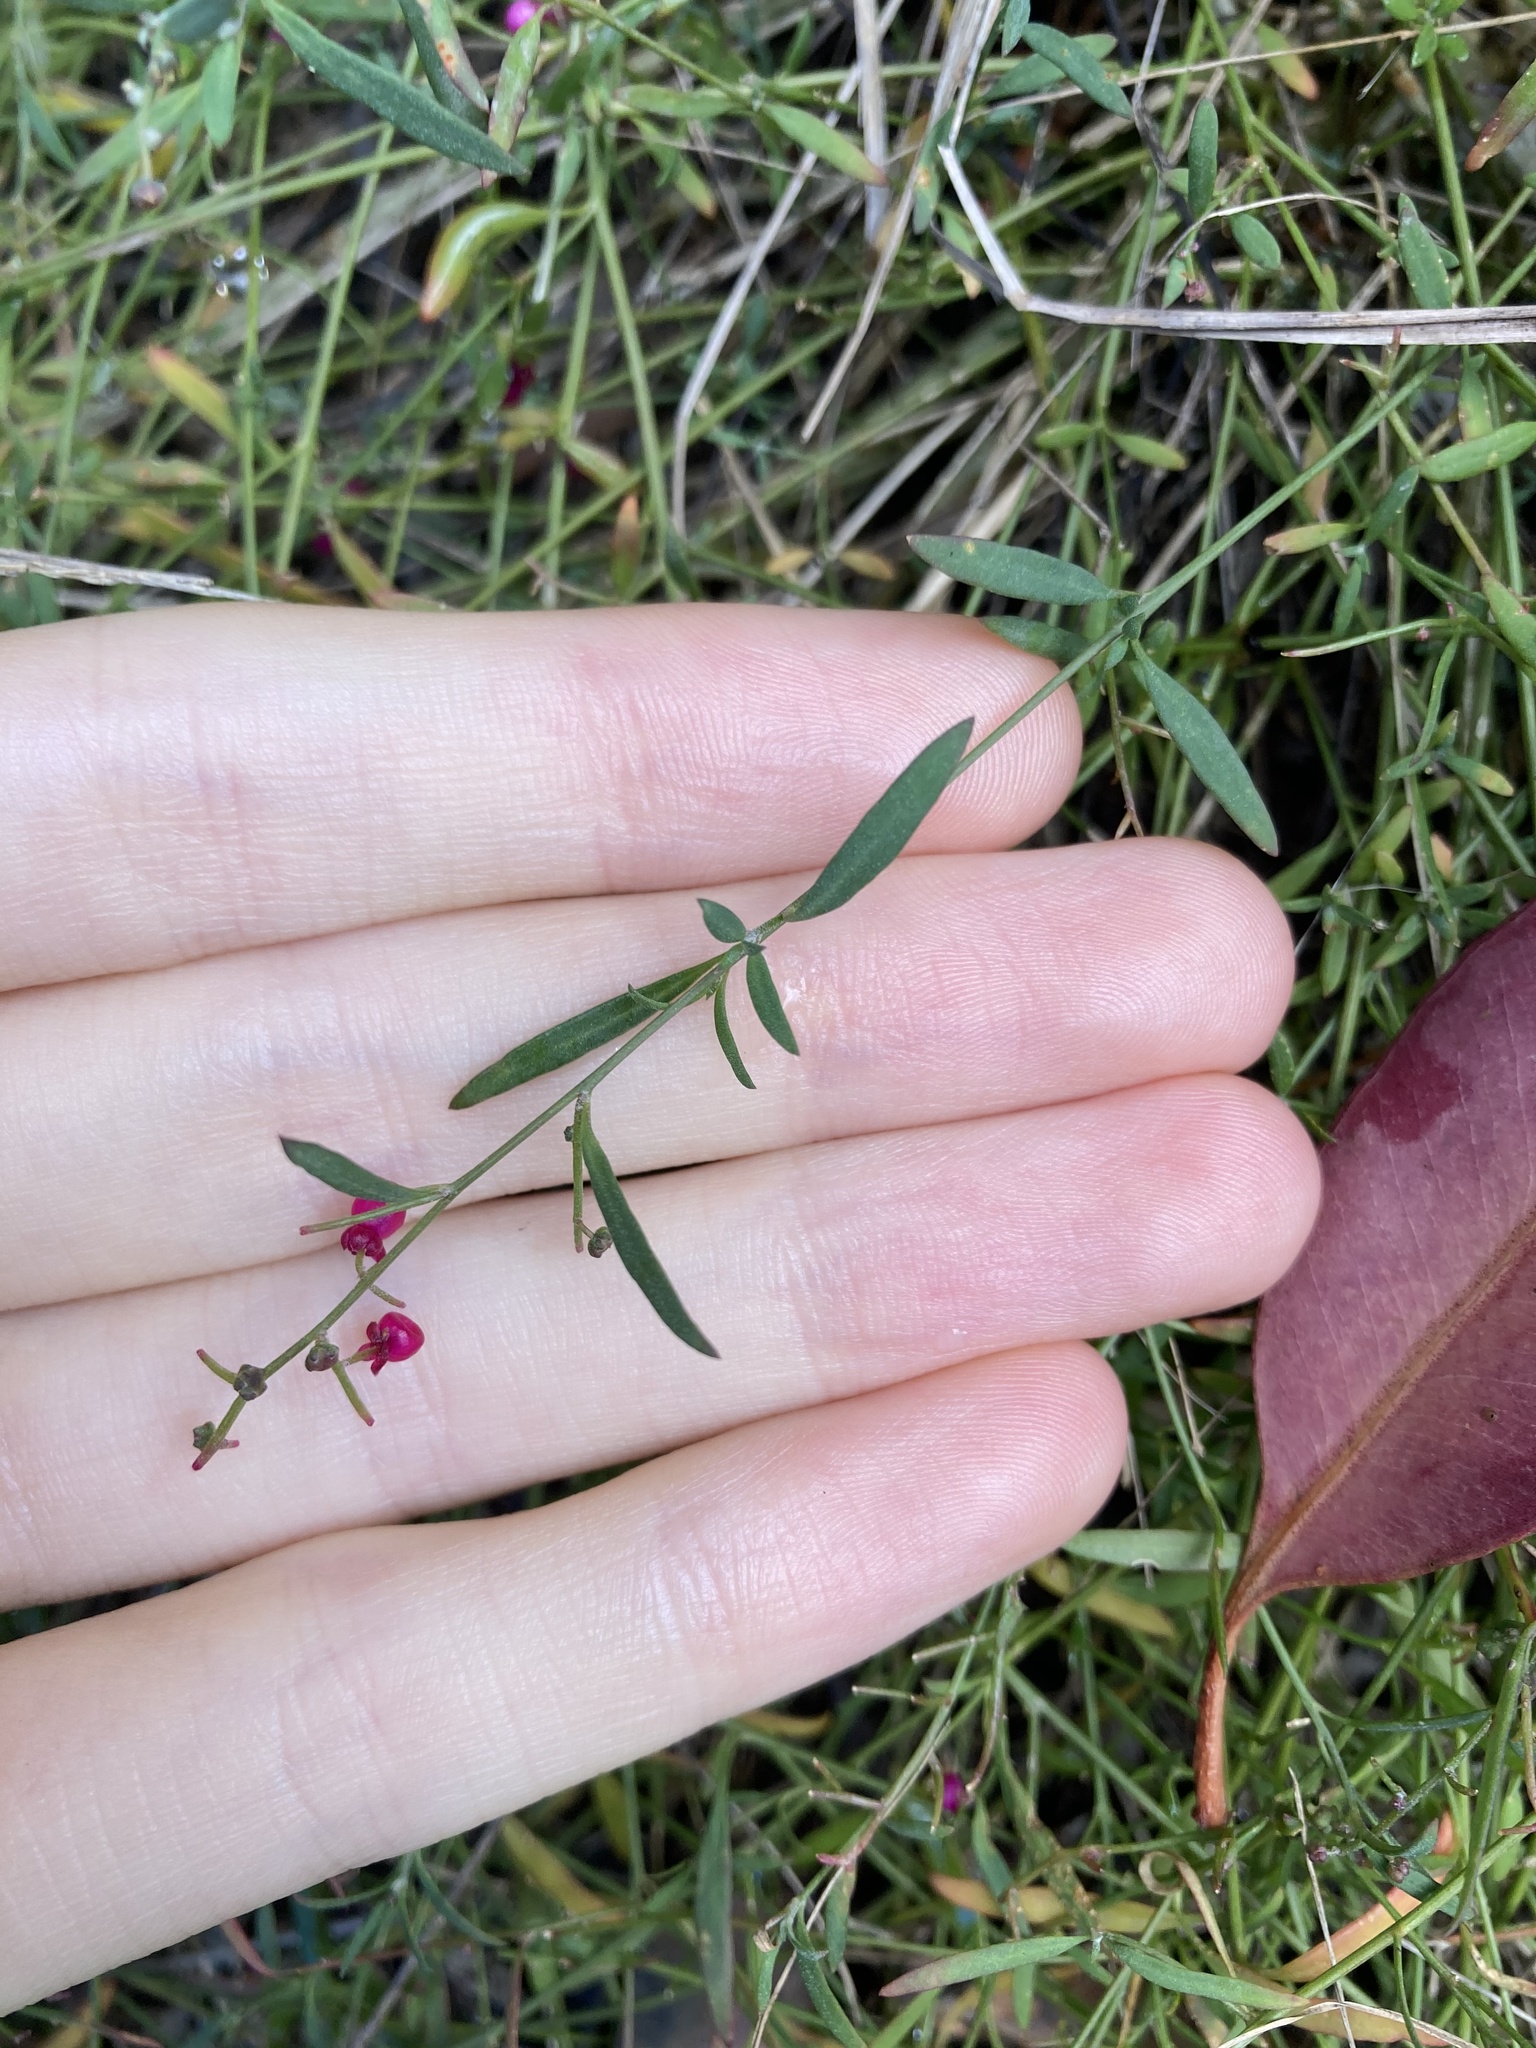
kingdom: Plantae
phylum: Tracheophyta
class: Magnoliopsida
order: Caryophyllales
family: Amaranthaceae
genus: Chenopodium
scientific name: Chenopodium nutans
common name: Climbing-saltbush
